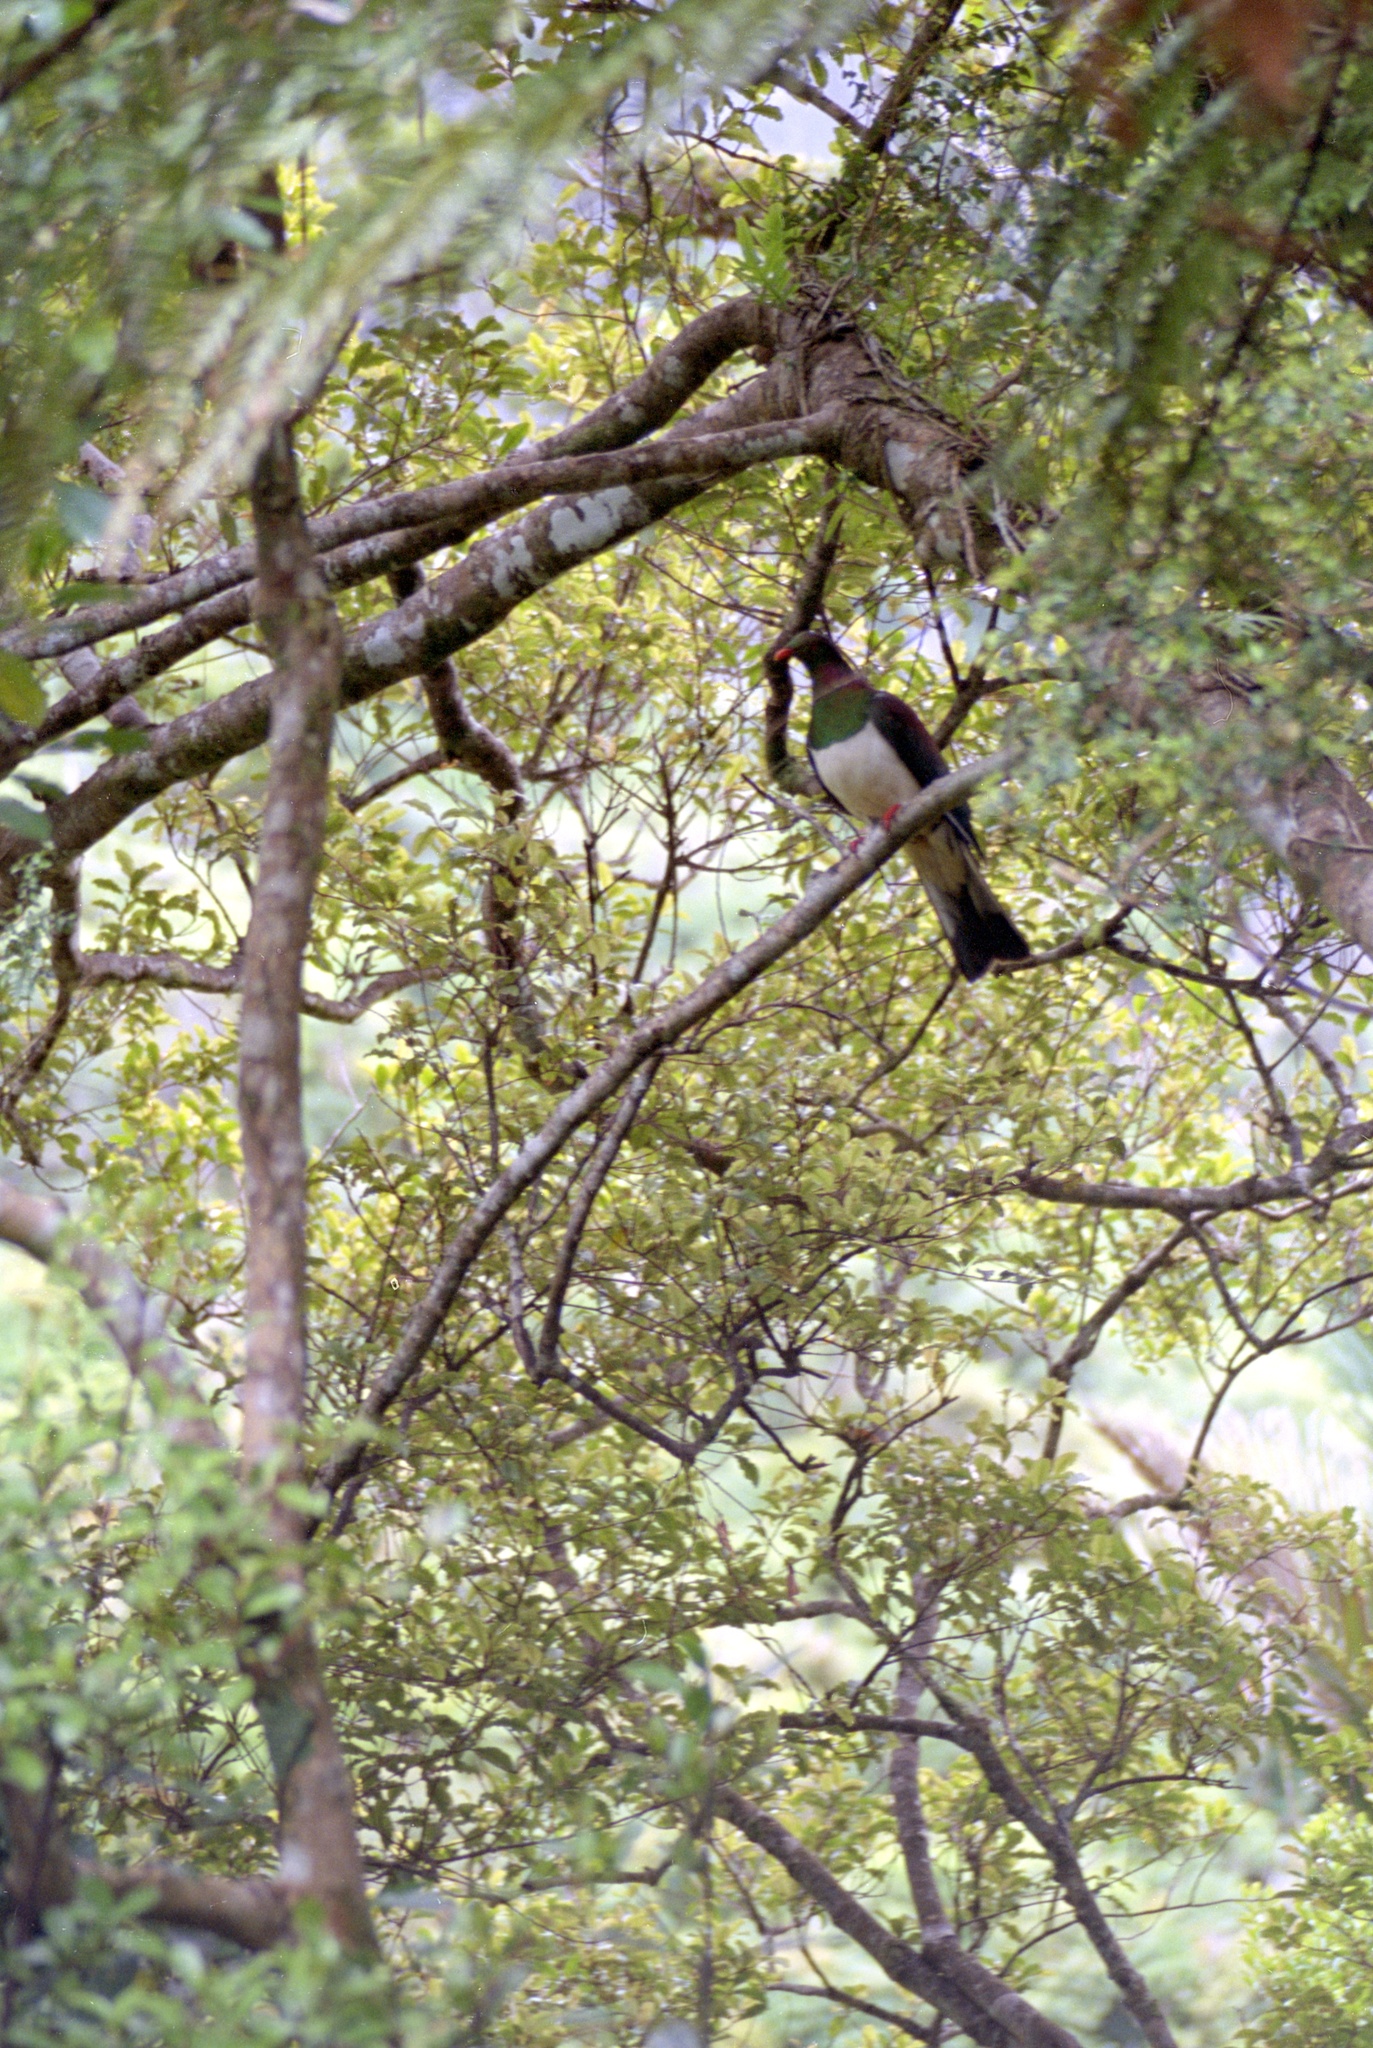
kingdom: Animalia
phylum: Chordata
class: Aves
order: Columbiformes
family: Columbidae
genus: Hemiphaga
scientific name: Hemiphaga novaeseelandiae
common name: New zealand pigeon
